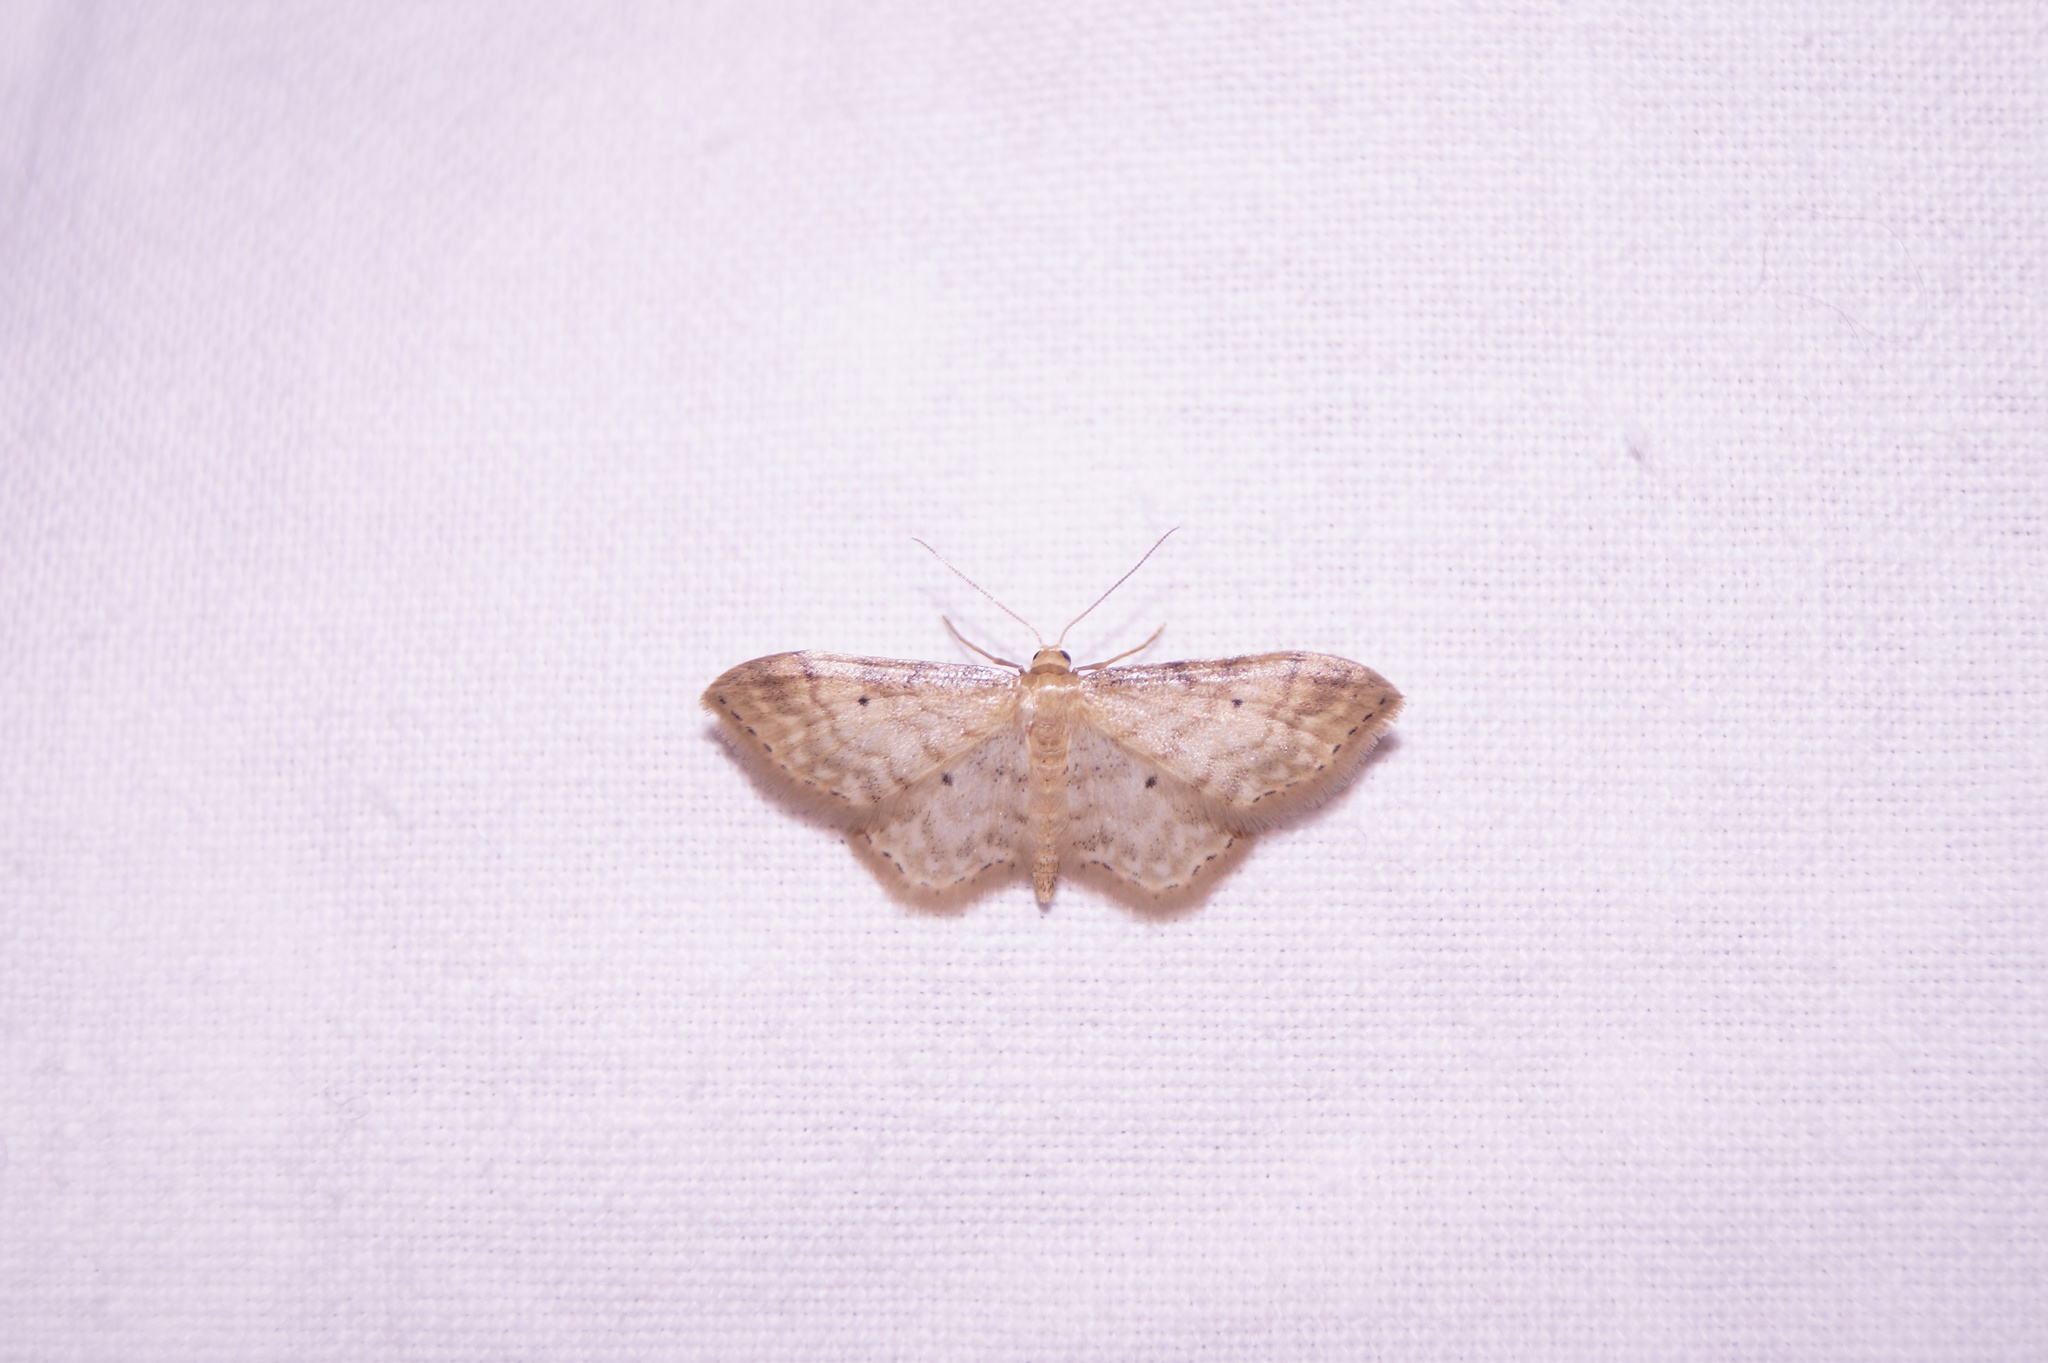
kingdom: Animalia
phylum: Arthropoda
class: Insecta
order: Lepidoptera
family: Geometridae
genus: Idaea
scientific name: Idaea fuscovenosa
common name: Dwarf cream wave
